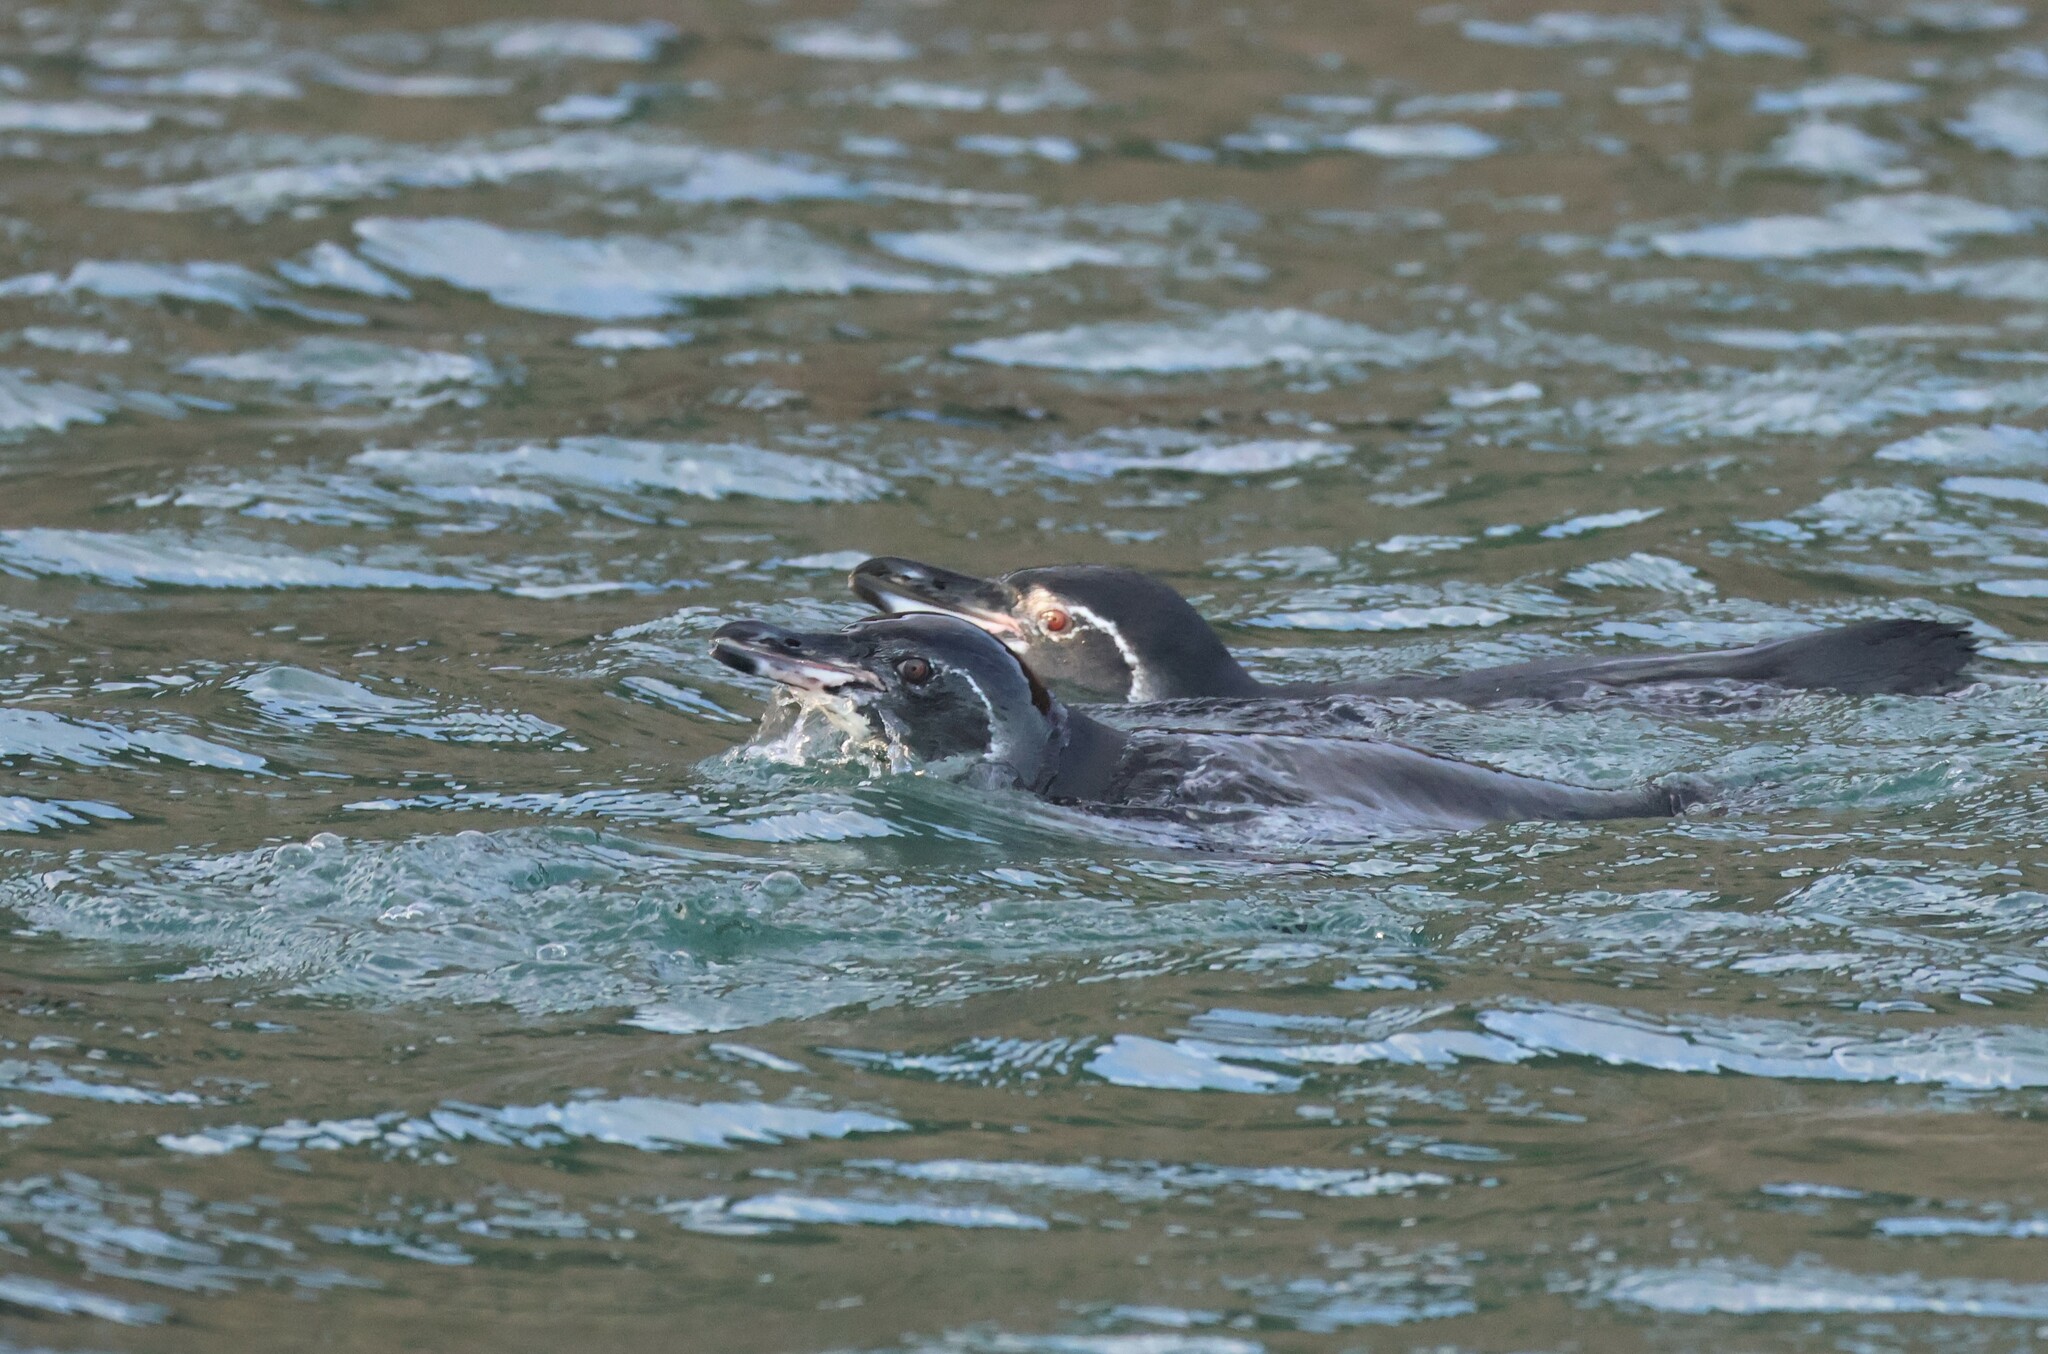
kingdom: Animalia
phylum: Chordata
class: Aves
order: Sphenisciformes
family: Spheniscidae
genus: Spheniscus
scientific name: Spheniscus mendiculus
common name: Galapagos penguin
